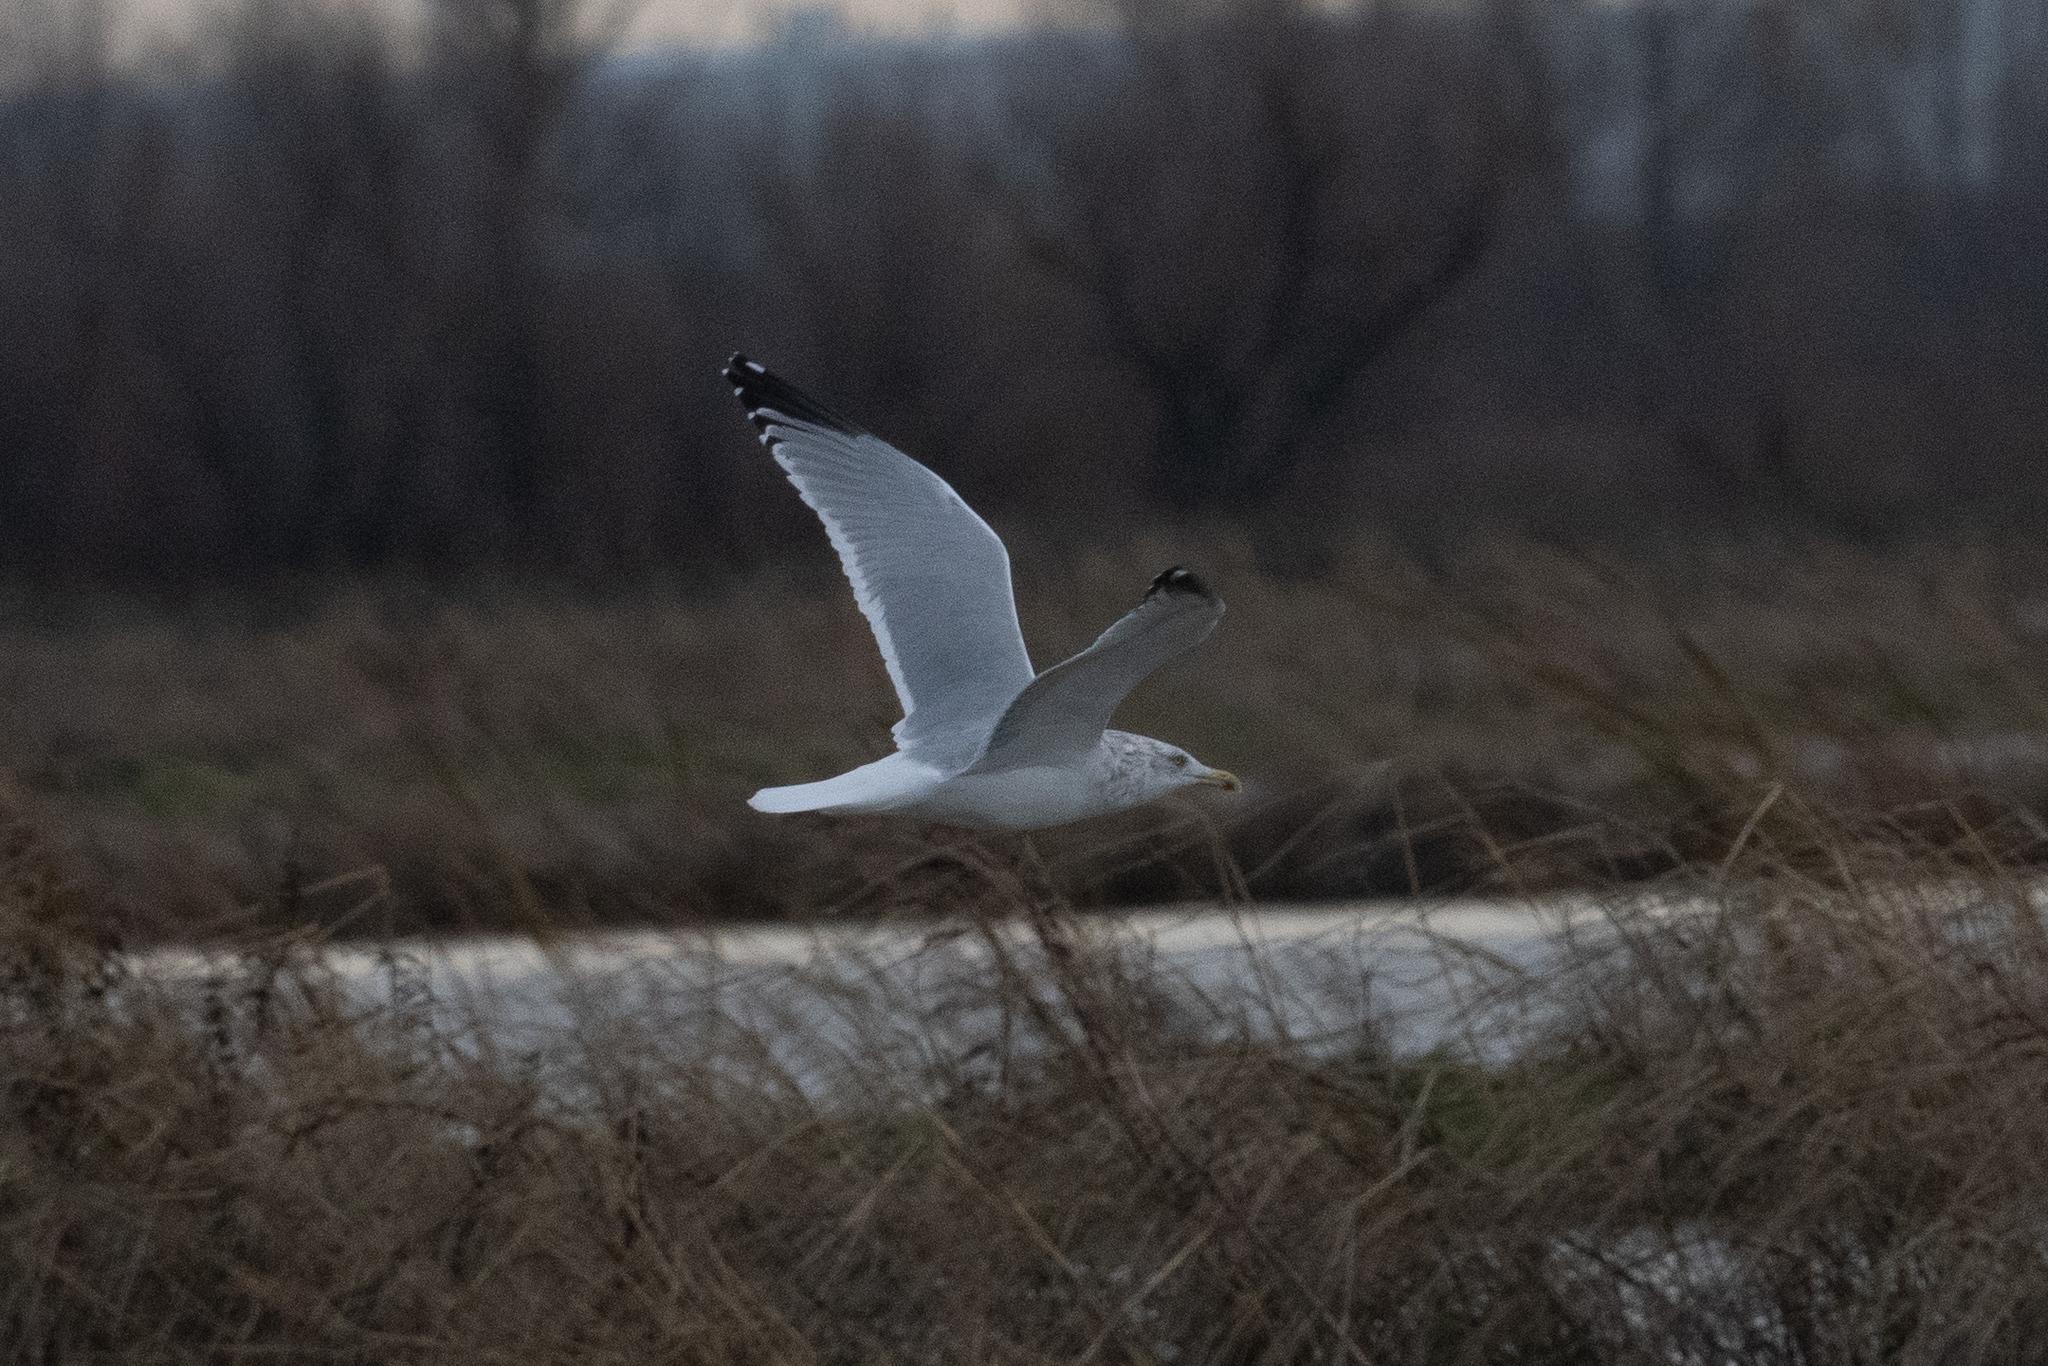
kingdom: Animalia
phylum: Chordata
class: Aves
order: Charadriiformes
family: Laridae
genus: Larus
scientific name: Larus argentatus
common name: Herring gull
